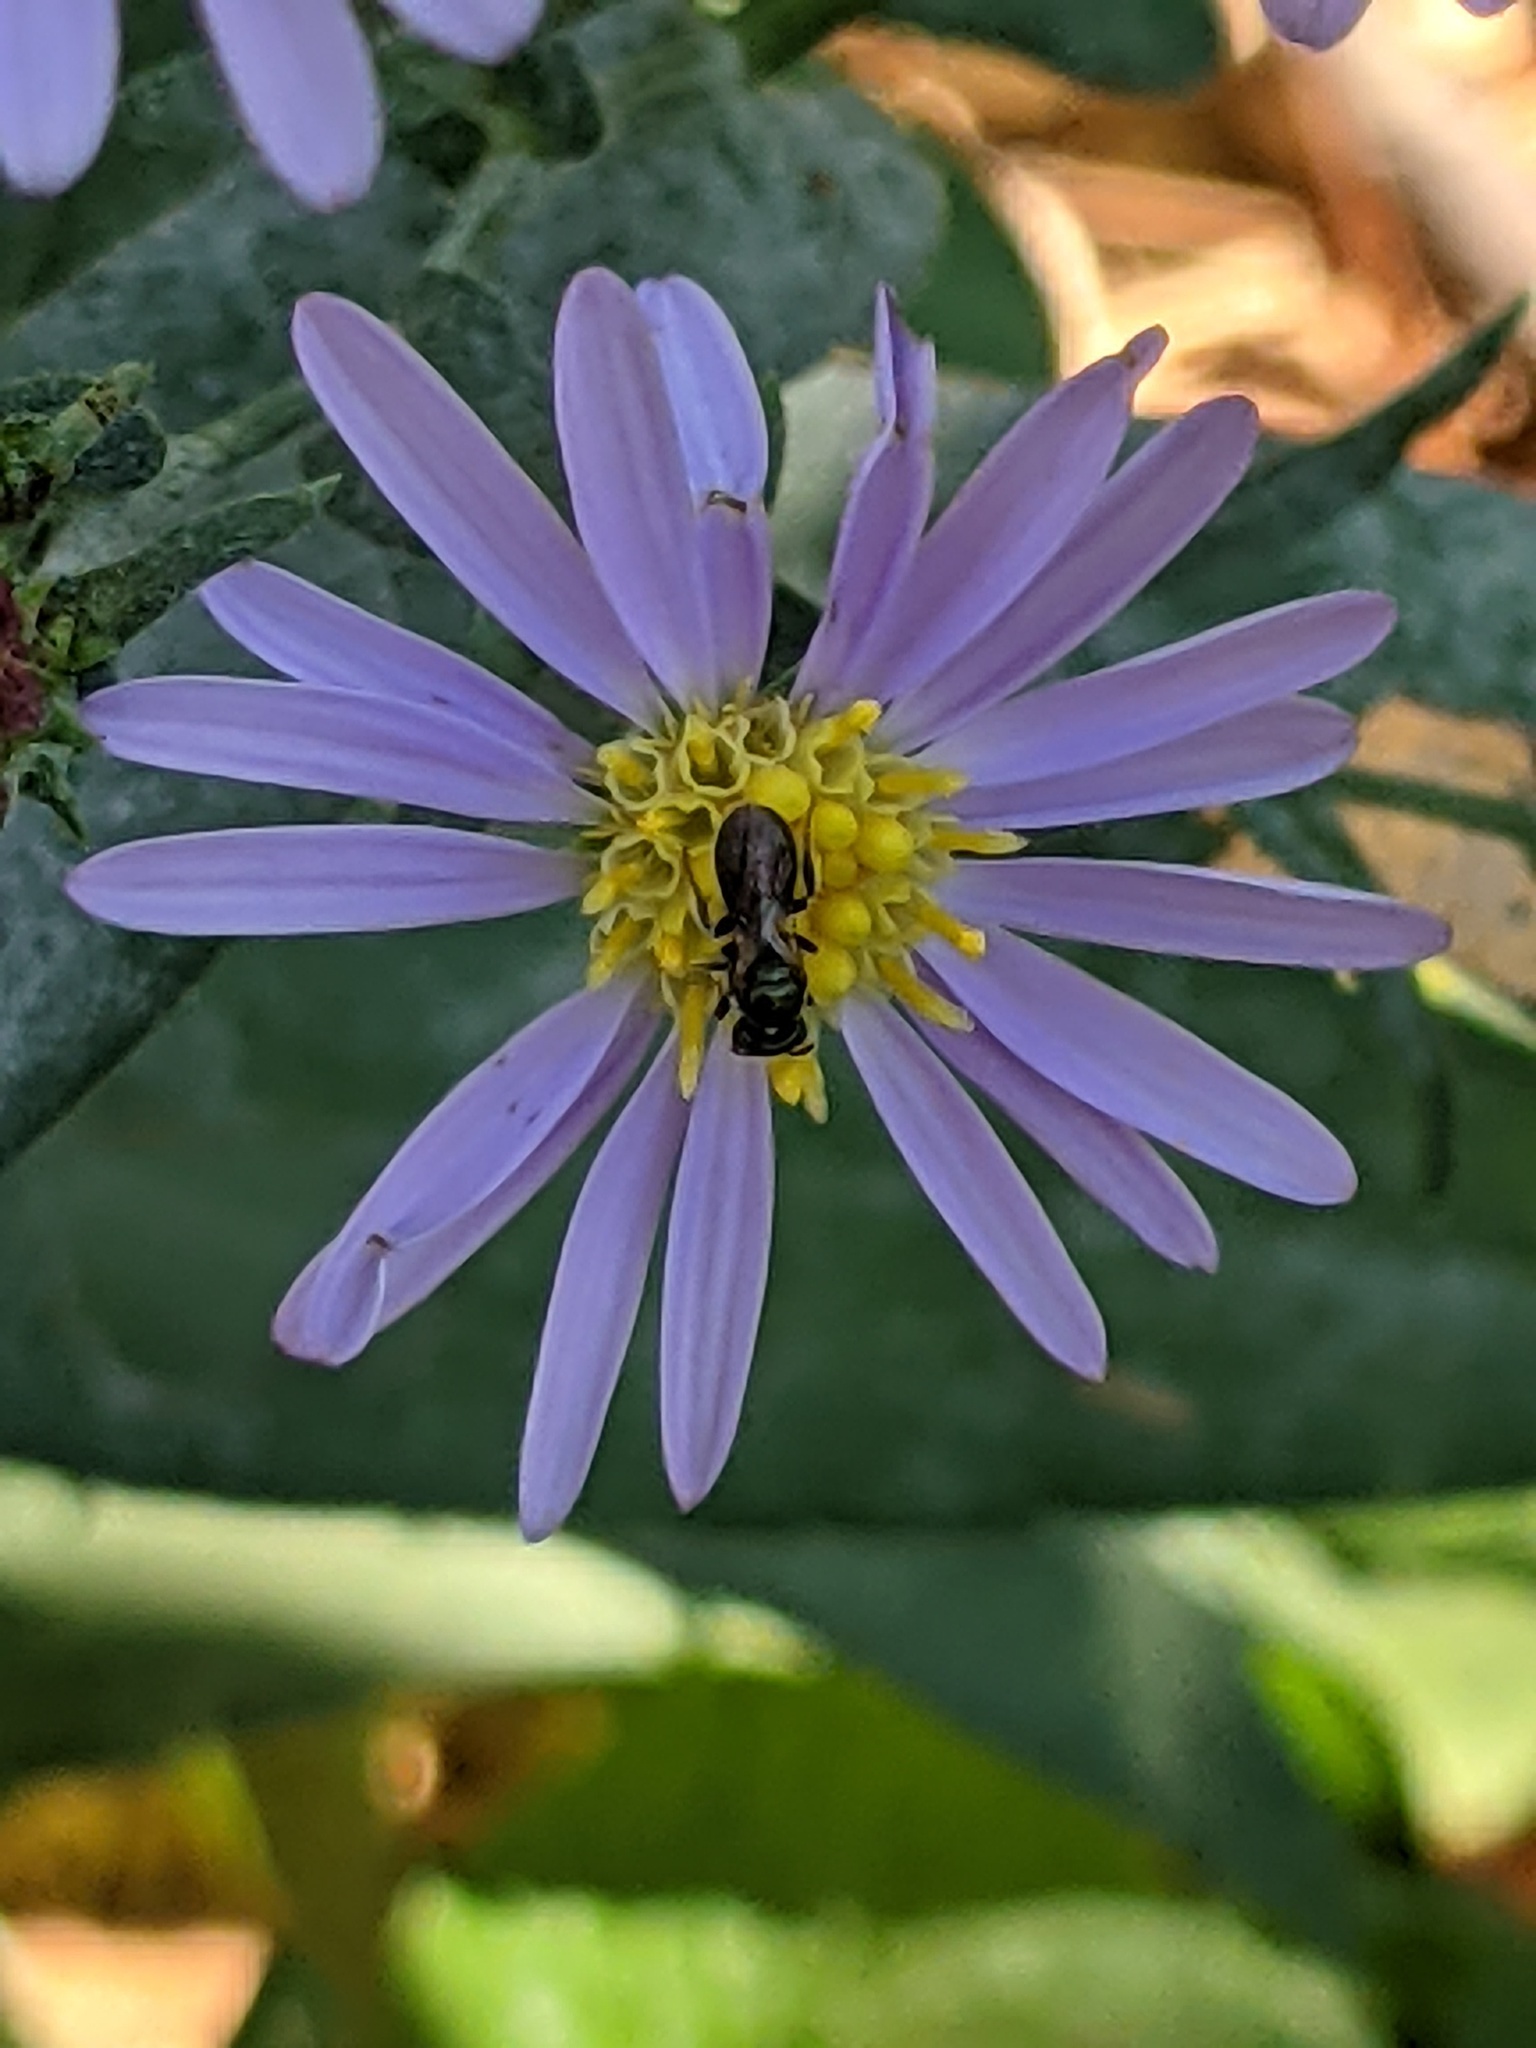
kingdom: Animalia
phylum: Arthropoda
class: Insecta
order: Hymenoptera
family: Apidae
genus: Zadontomerus
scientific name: Zadontomerus
